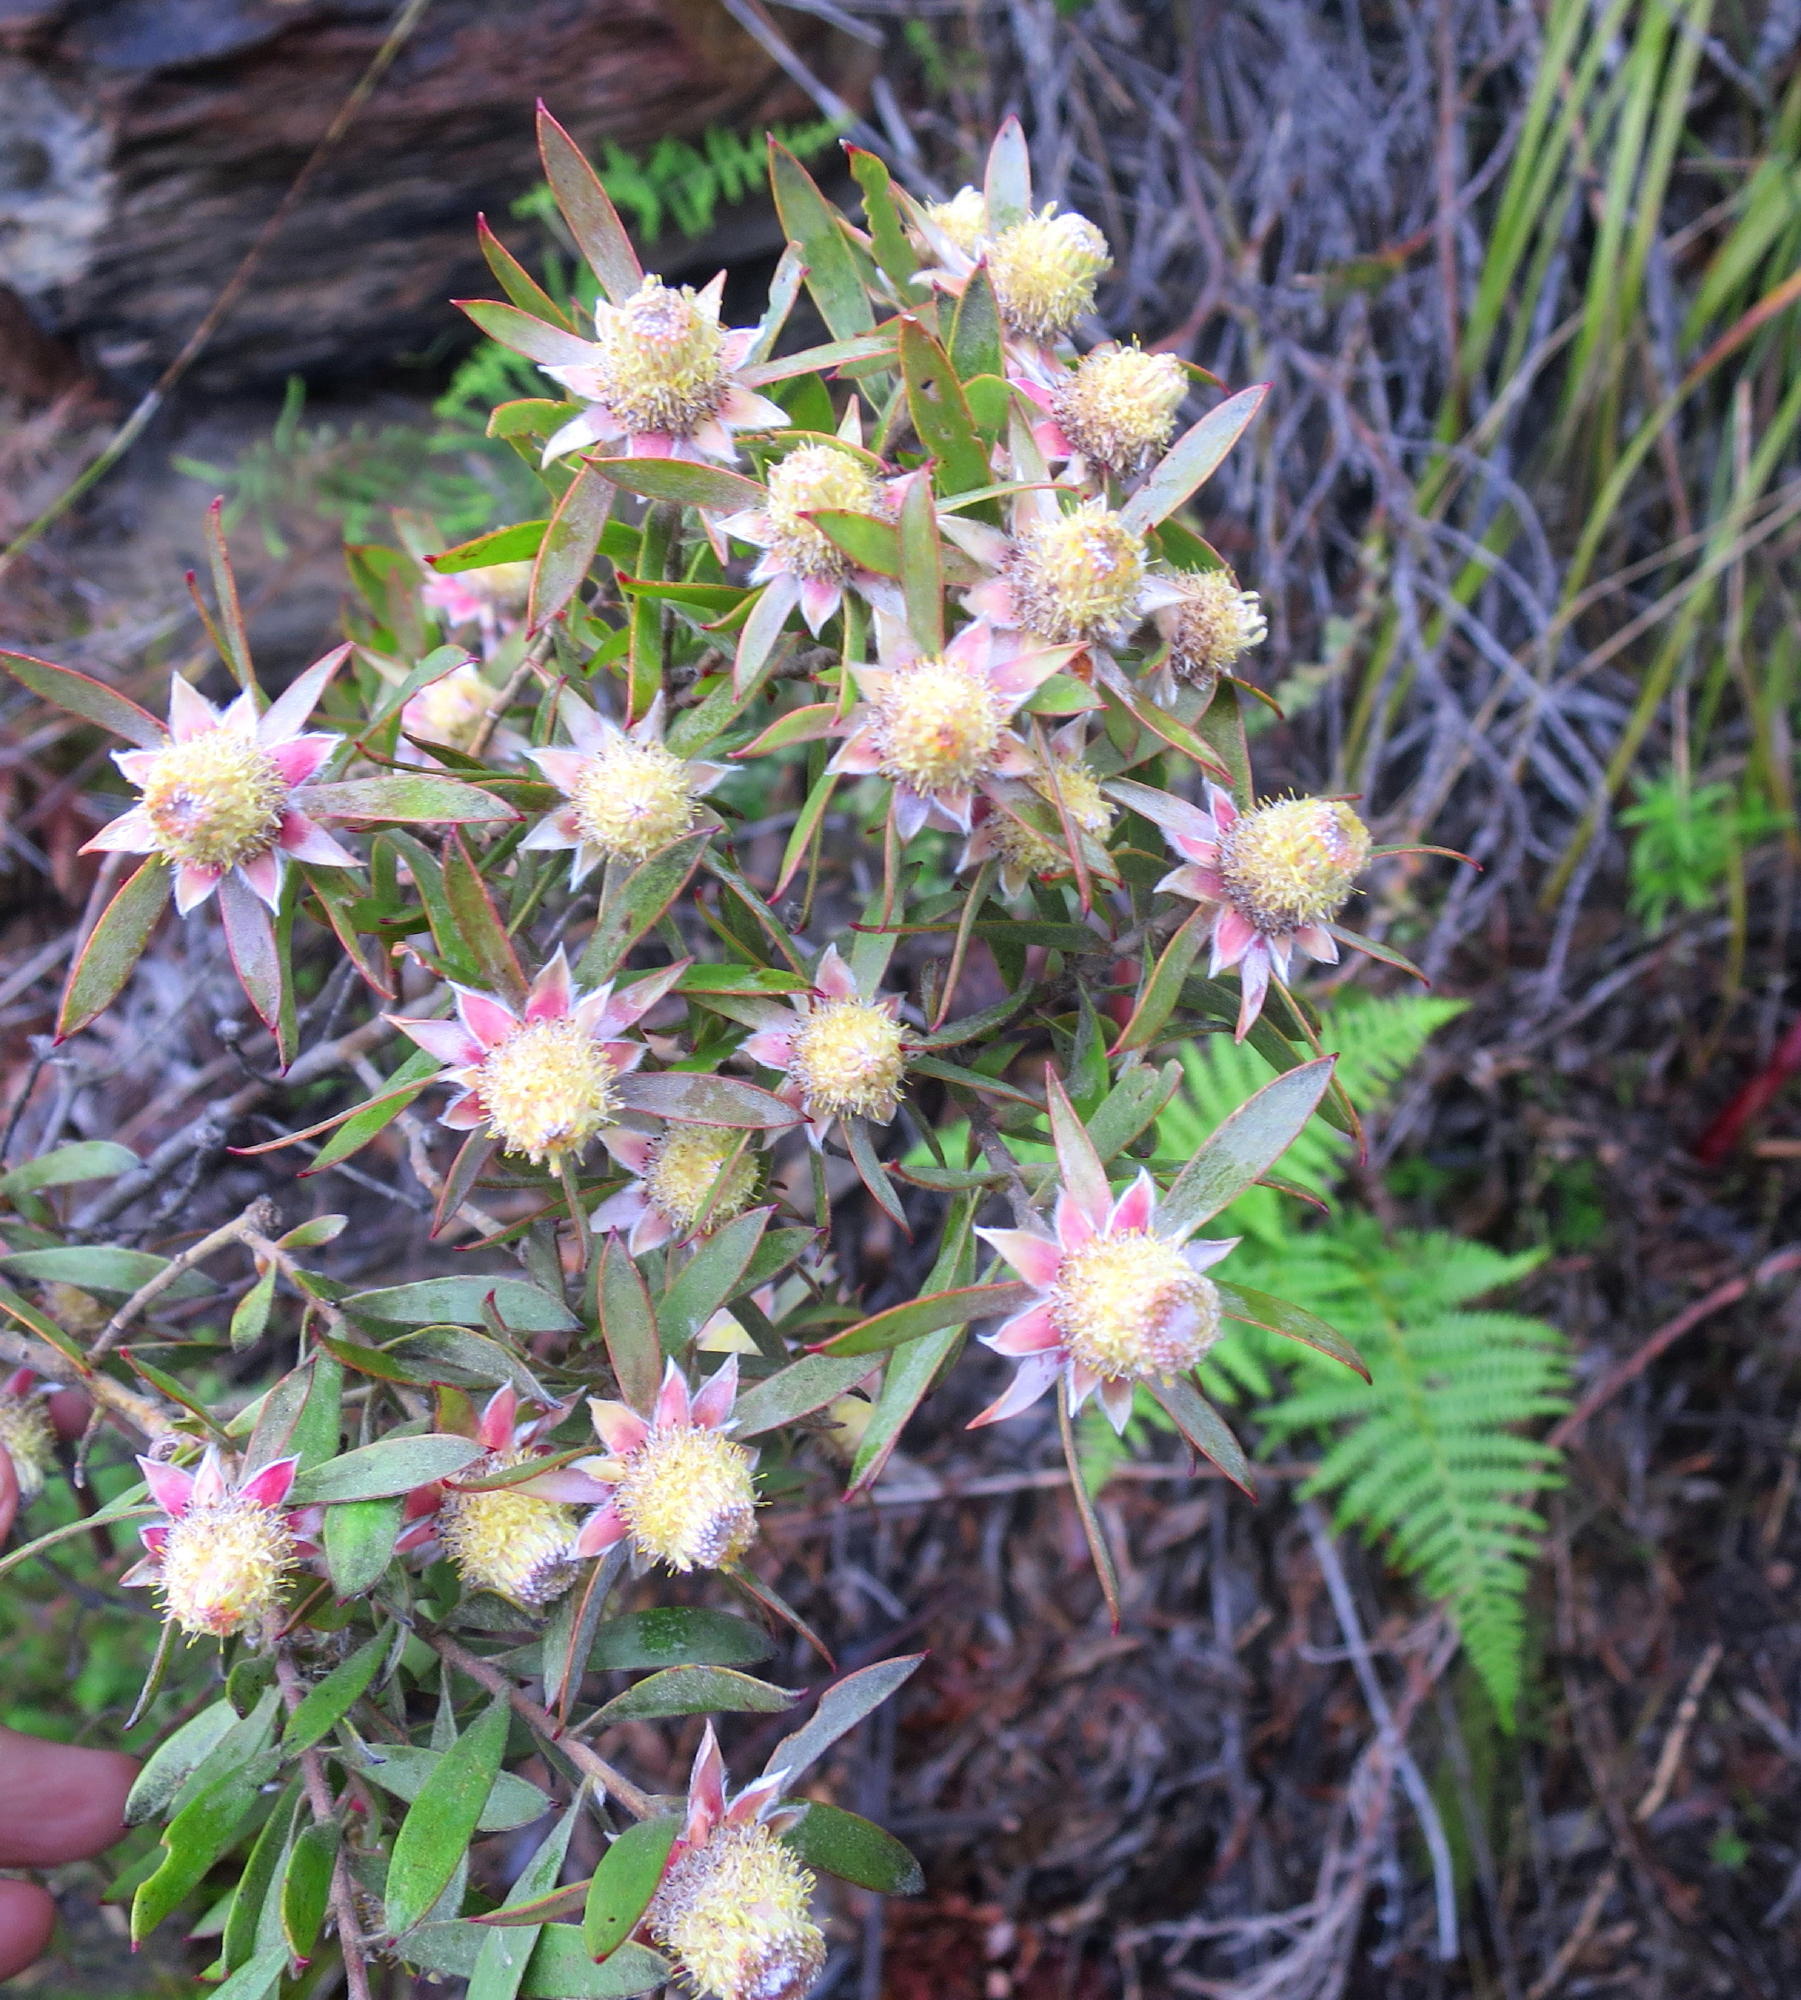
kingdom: Plantae
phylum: Tracheophyta
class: Magnoliopsida
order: Proteales
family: Proteaceae
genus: Leucadendron
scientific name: Leucadendron conicum
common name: Garden route conebush
